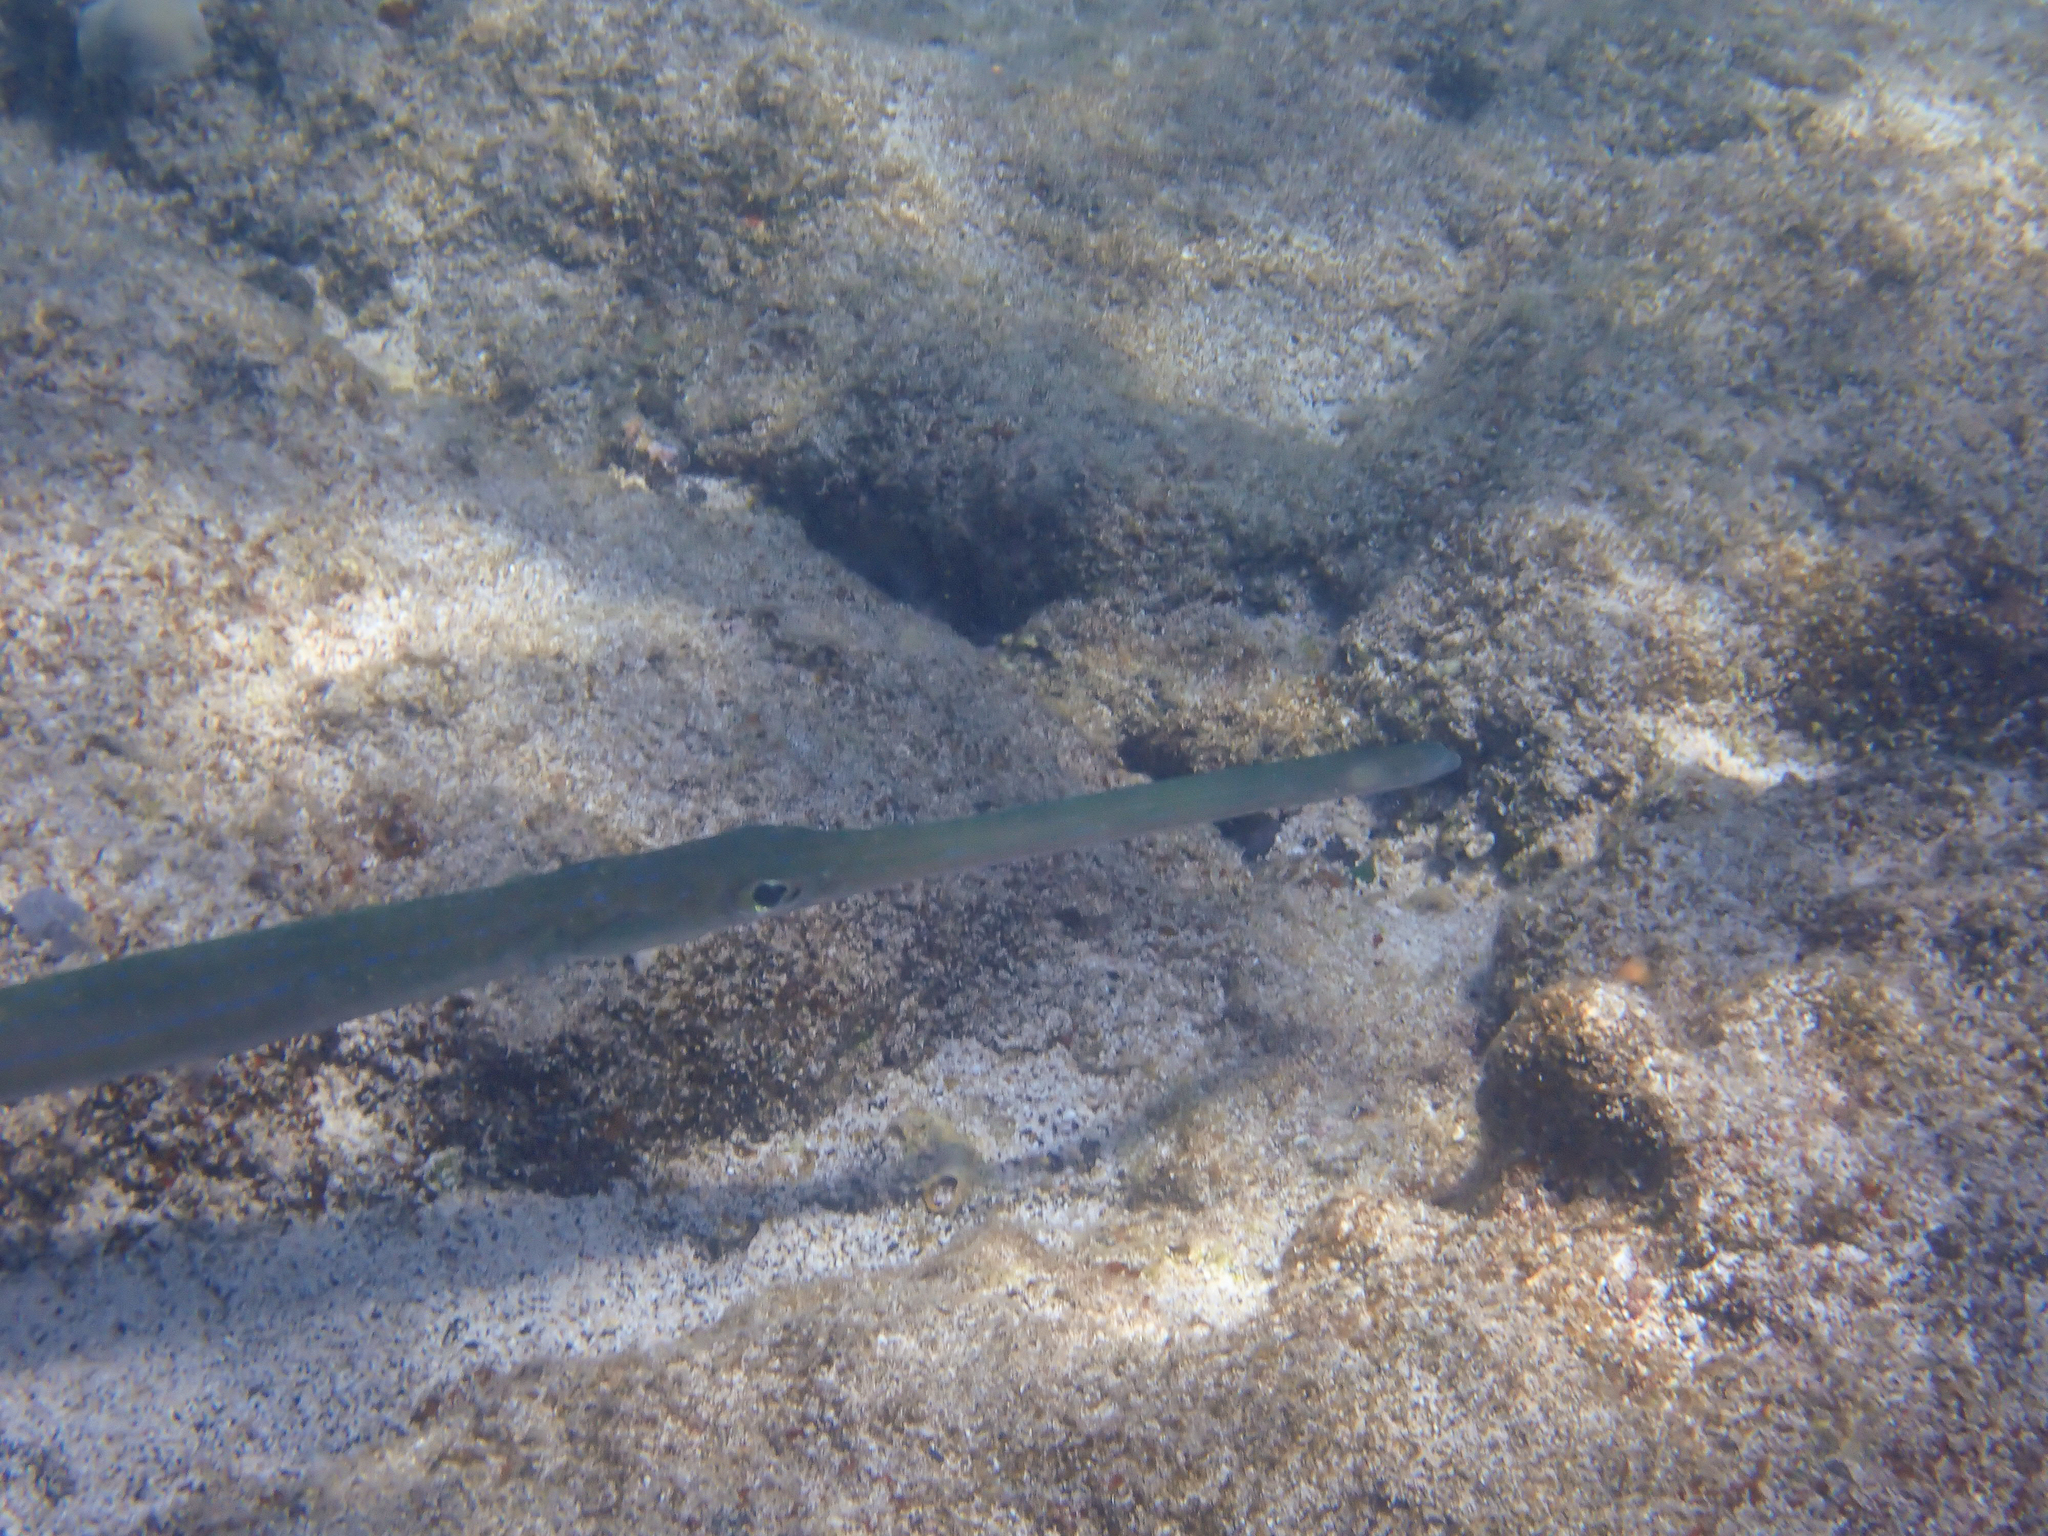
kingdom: Animalia
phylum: Chordata
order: Syngnathiformes
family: Fistulariidae
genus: Fistularia
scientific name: Fistularia commersonii
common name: Bluespotted cornetfish
